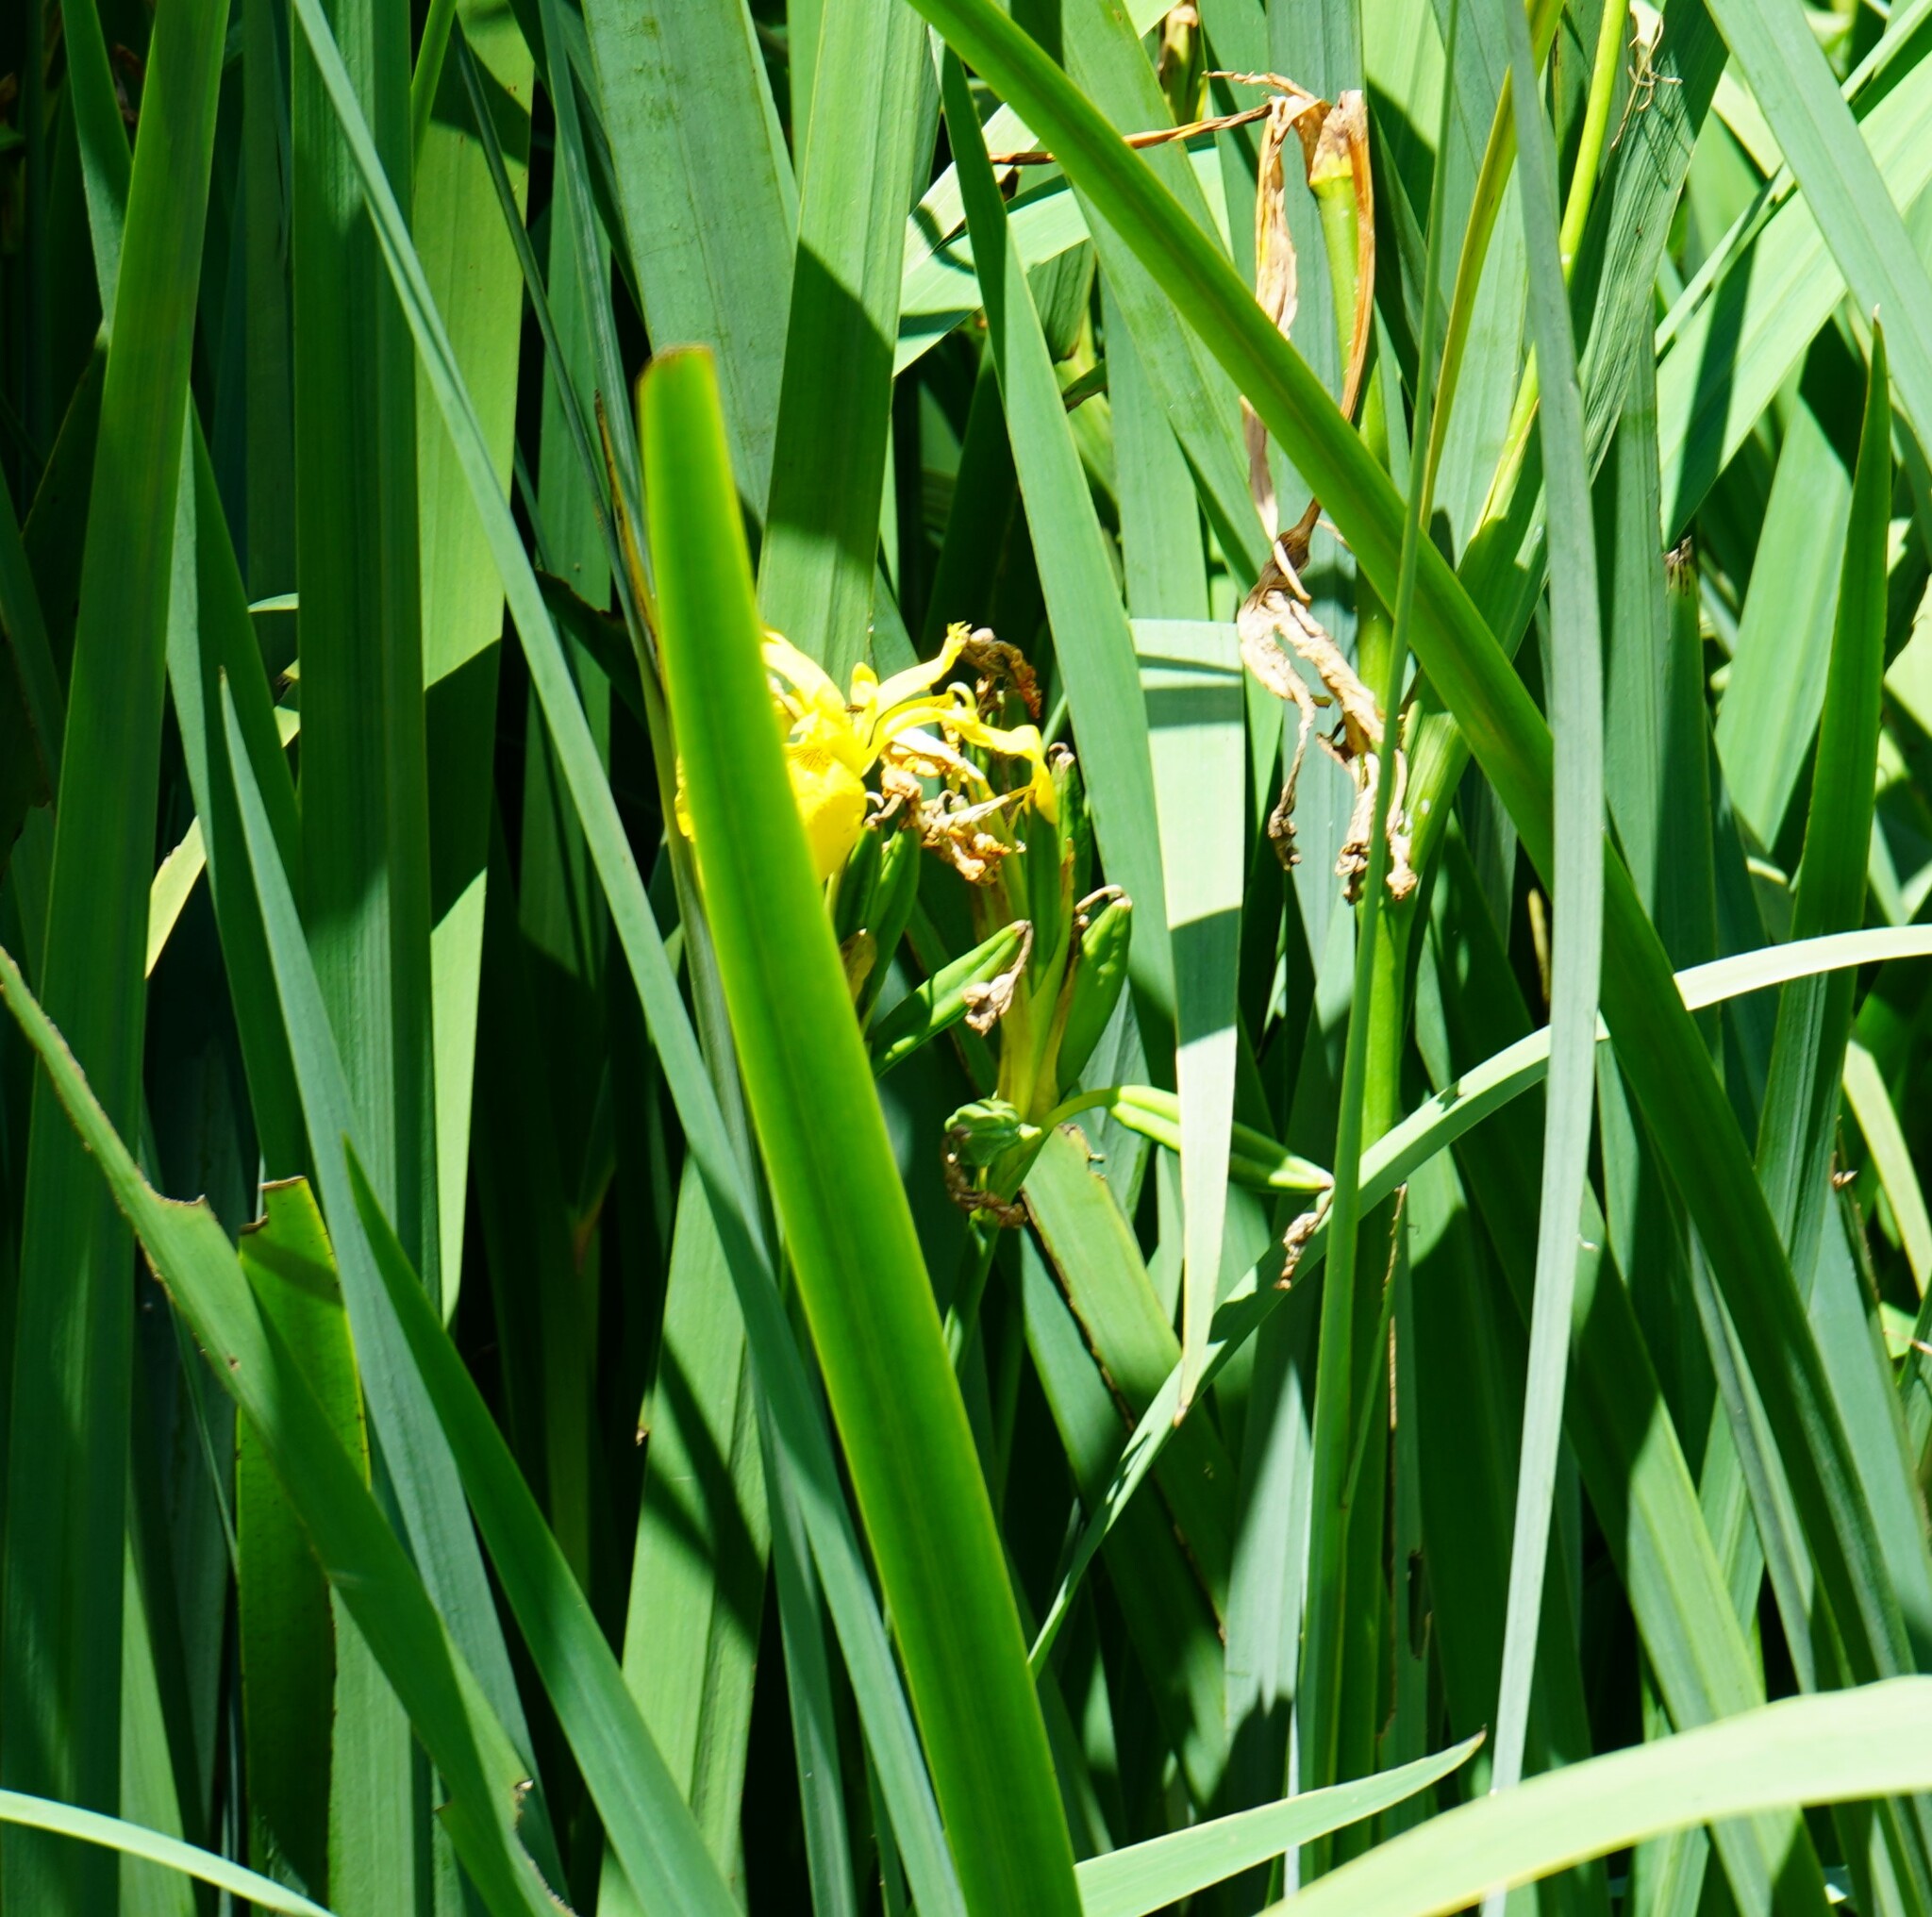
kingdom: Plantae
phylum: Tracheophyta
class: Liliopsida
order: Asparagales
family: Iridaceae
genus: Iris
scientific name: Iris pseudacorus
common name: Yellow flag
